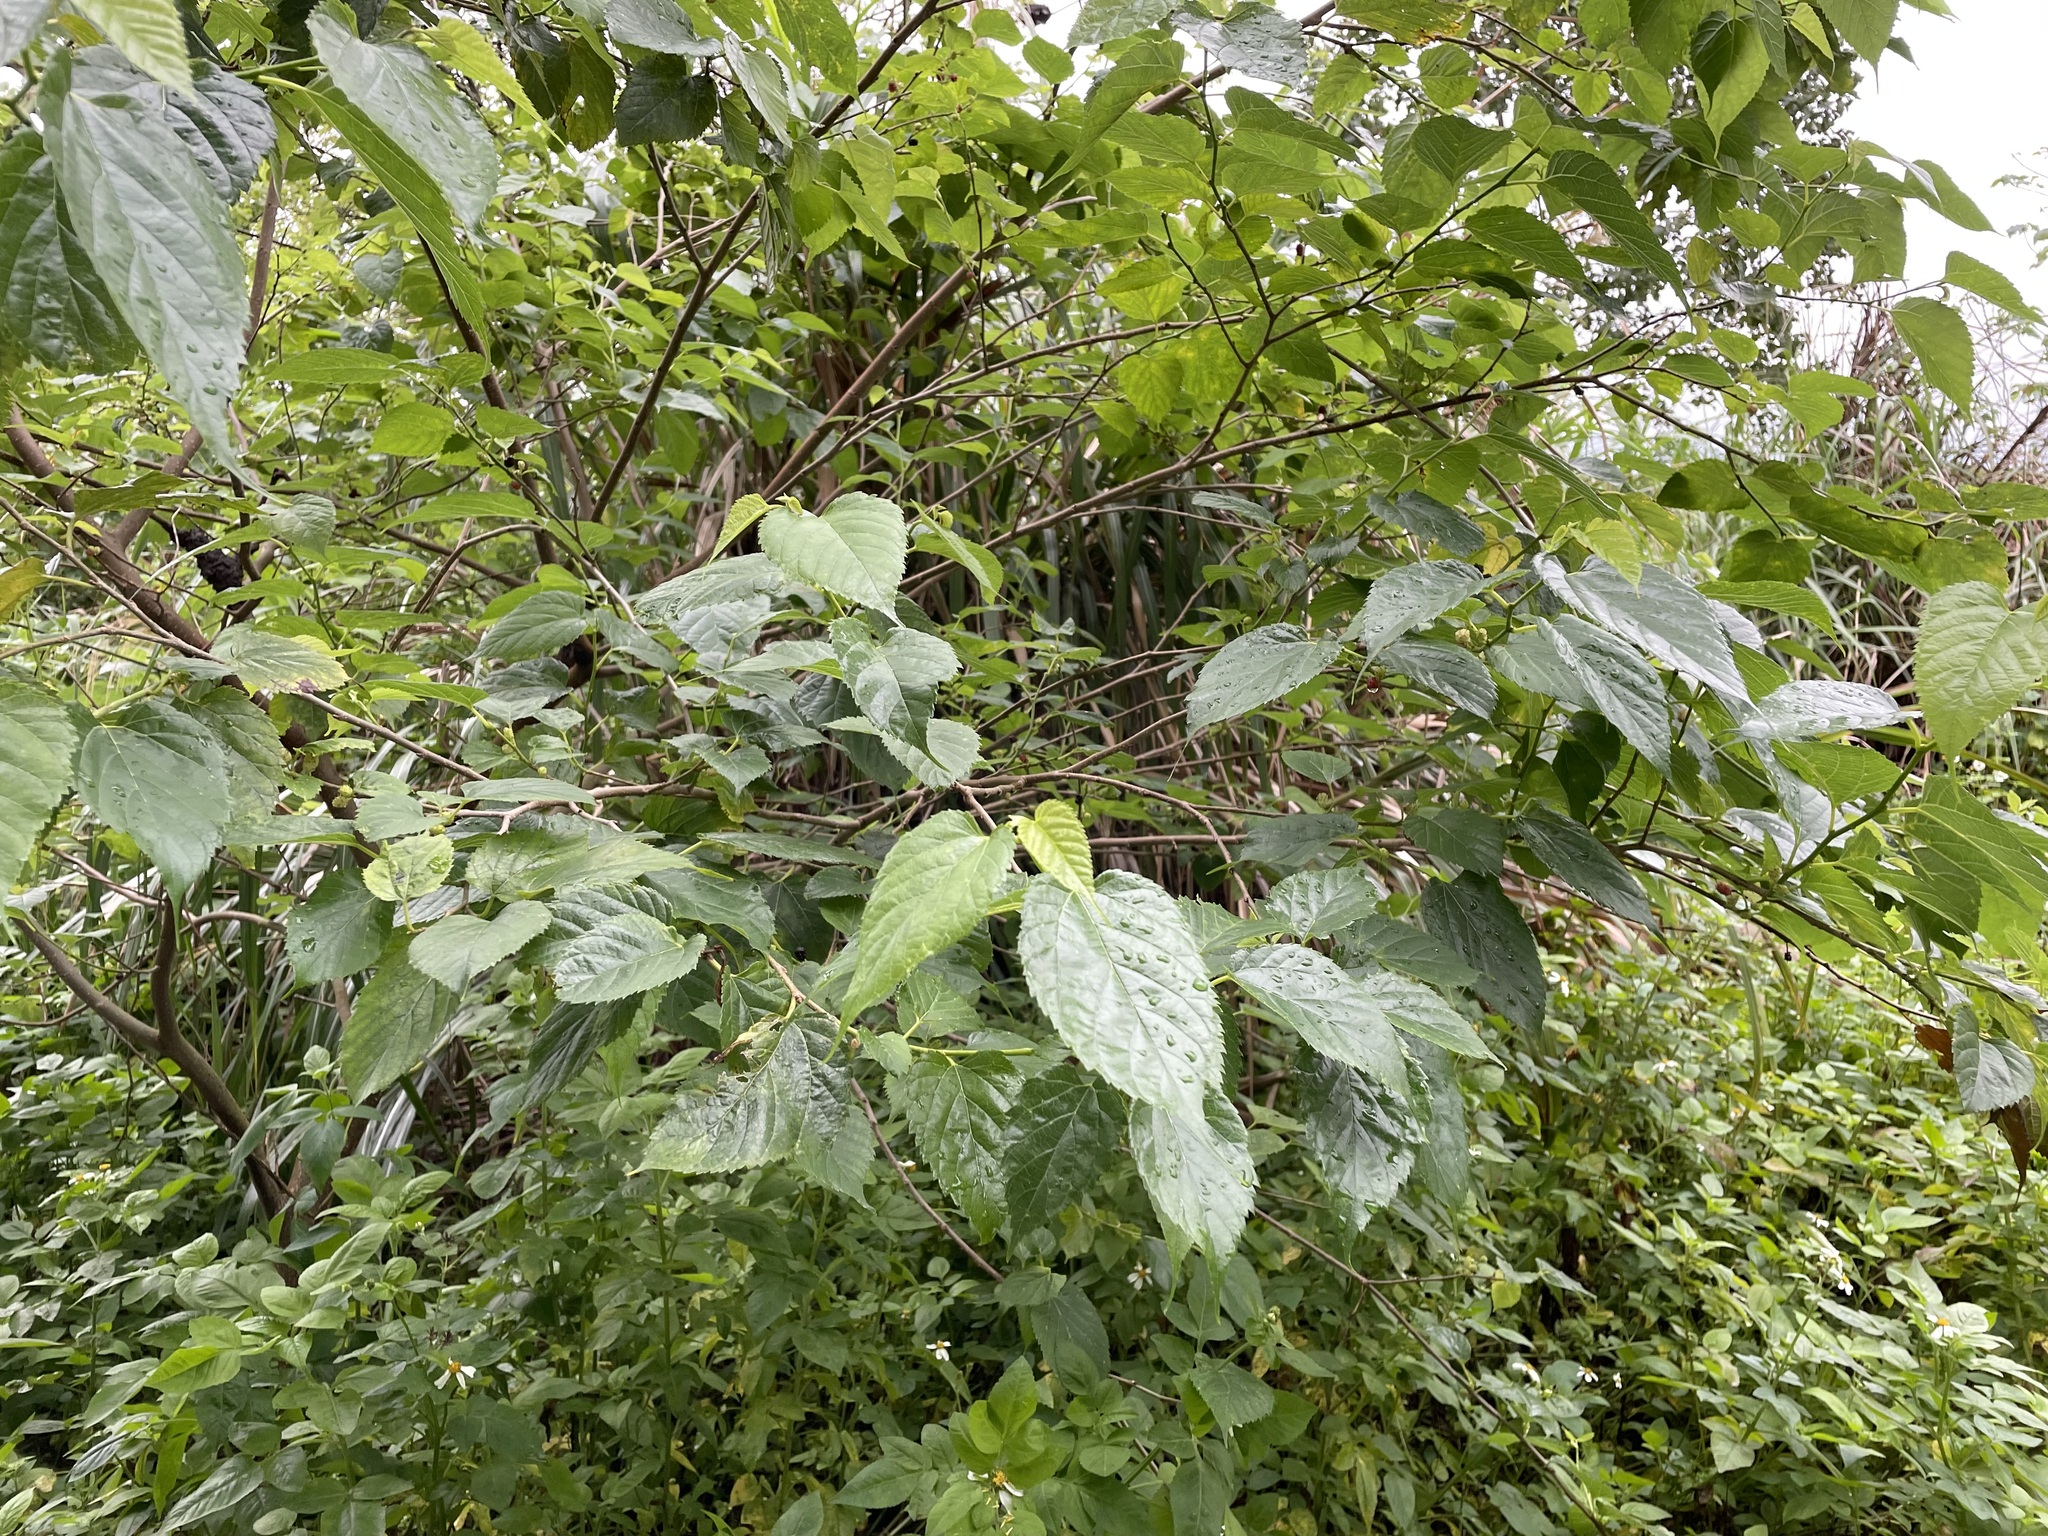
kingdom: Plantae
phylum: Tracheophyta
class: Magnoliopsida
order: Rosales
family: Moraceae
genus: Morus
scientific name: Morus indica
